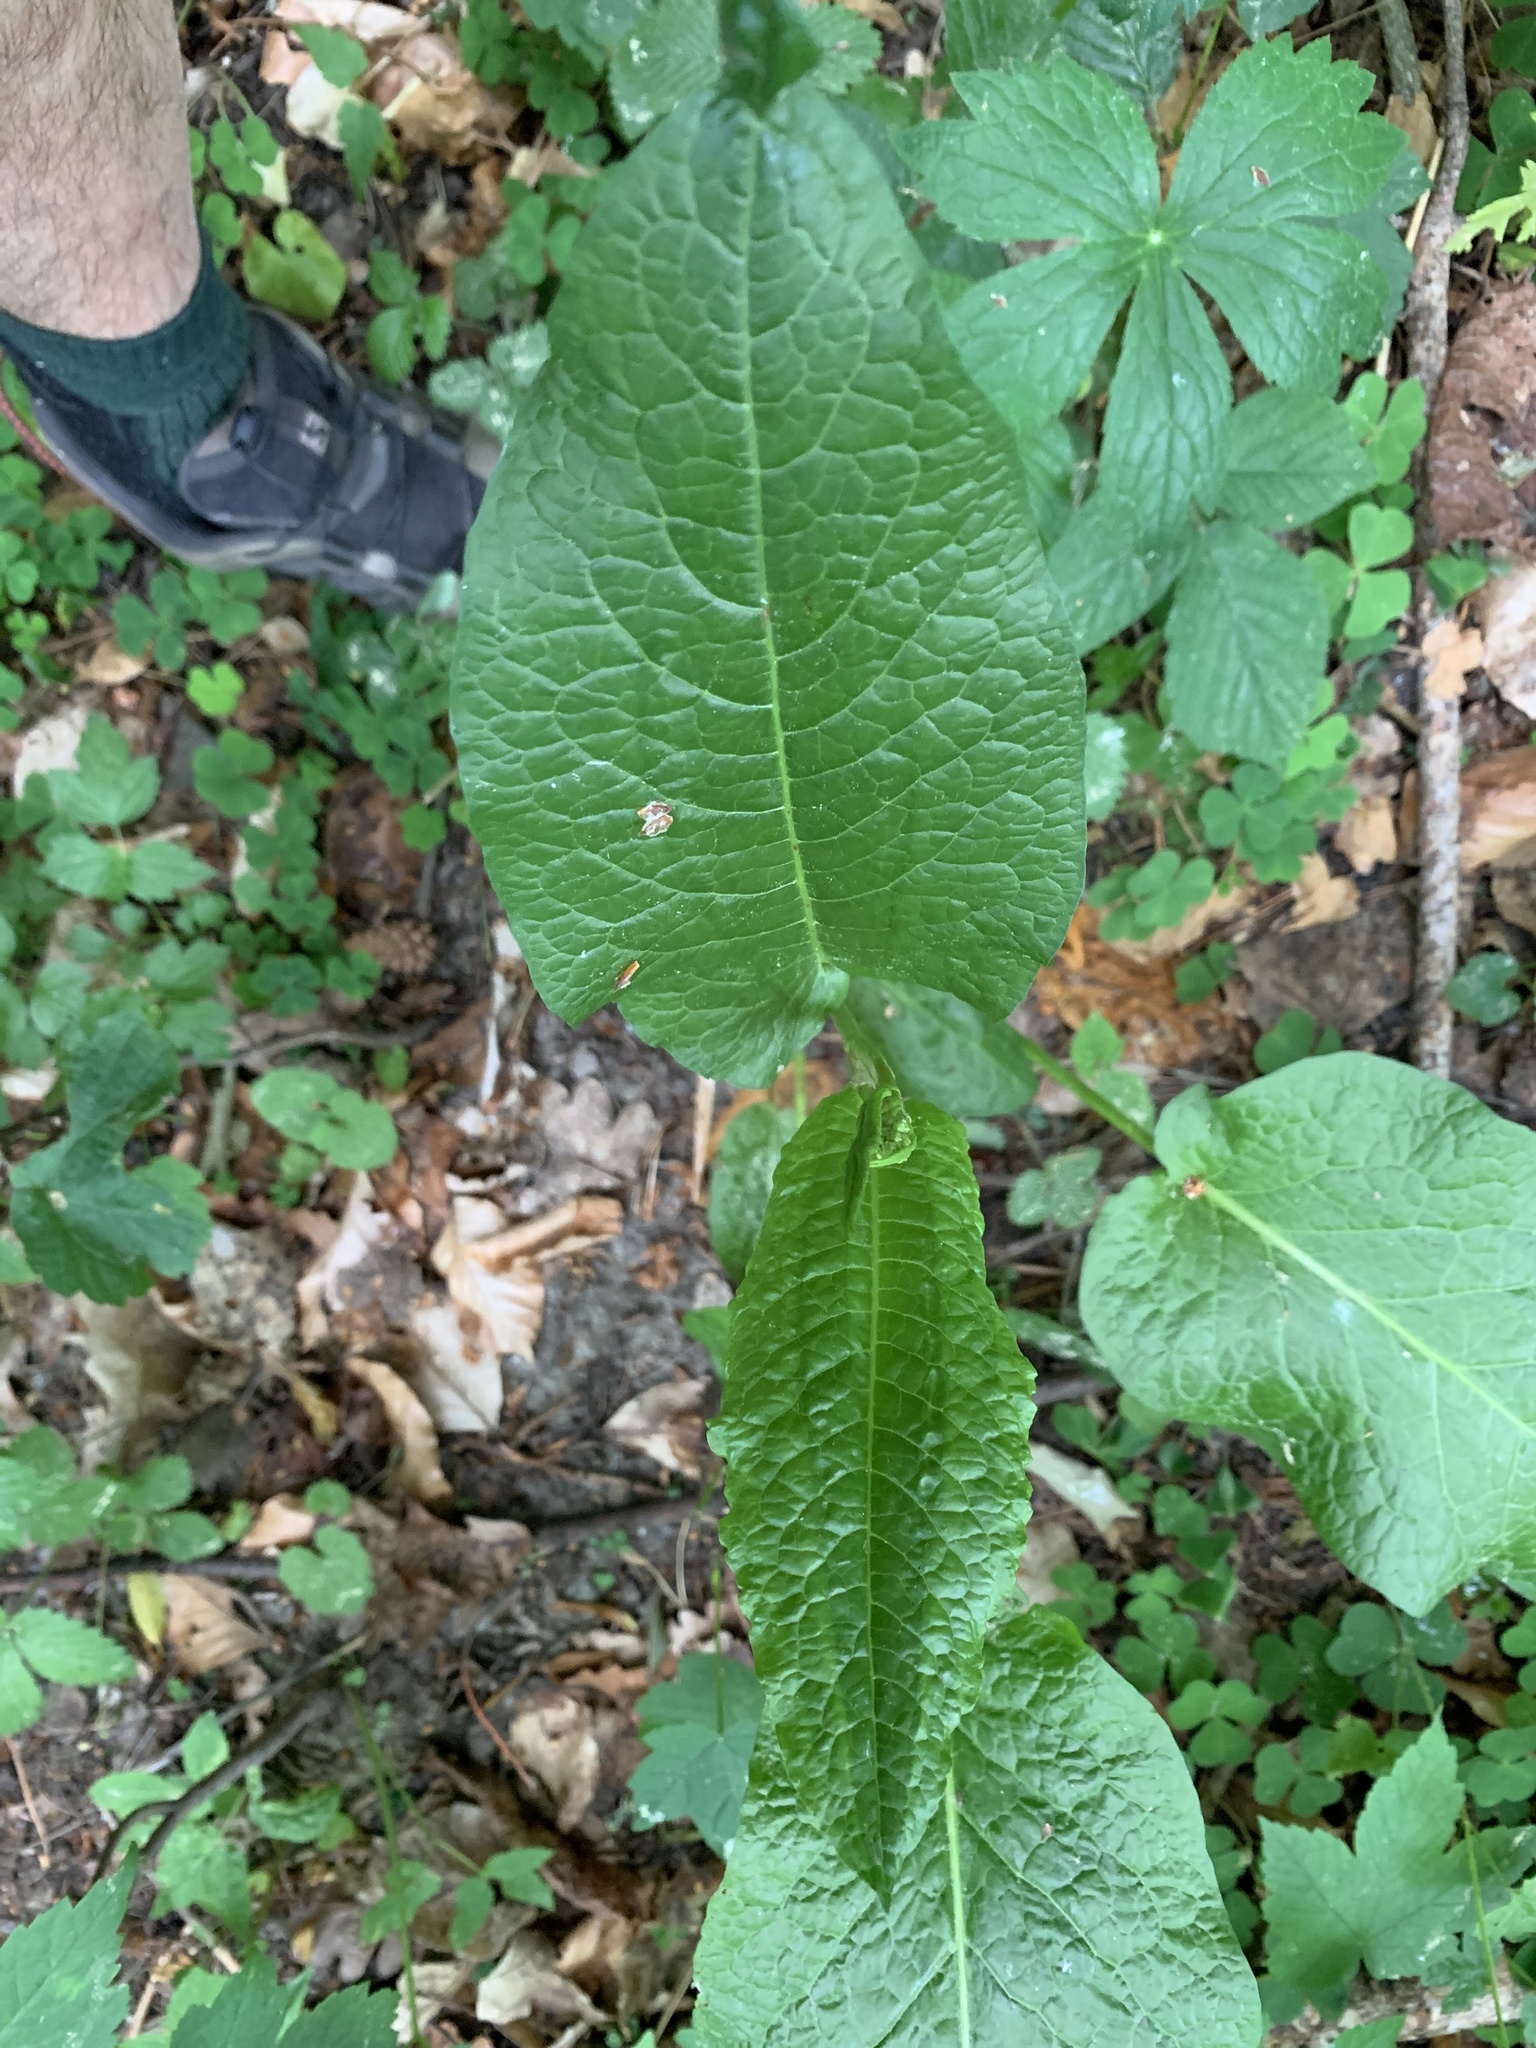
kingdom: Plantae
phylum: Tracheophyta
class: Magnoliopsida
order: Caryophyllales
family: Polygonaceae
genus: Rumex
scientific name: Rumex obtusifolius
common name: Bitter dock
